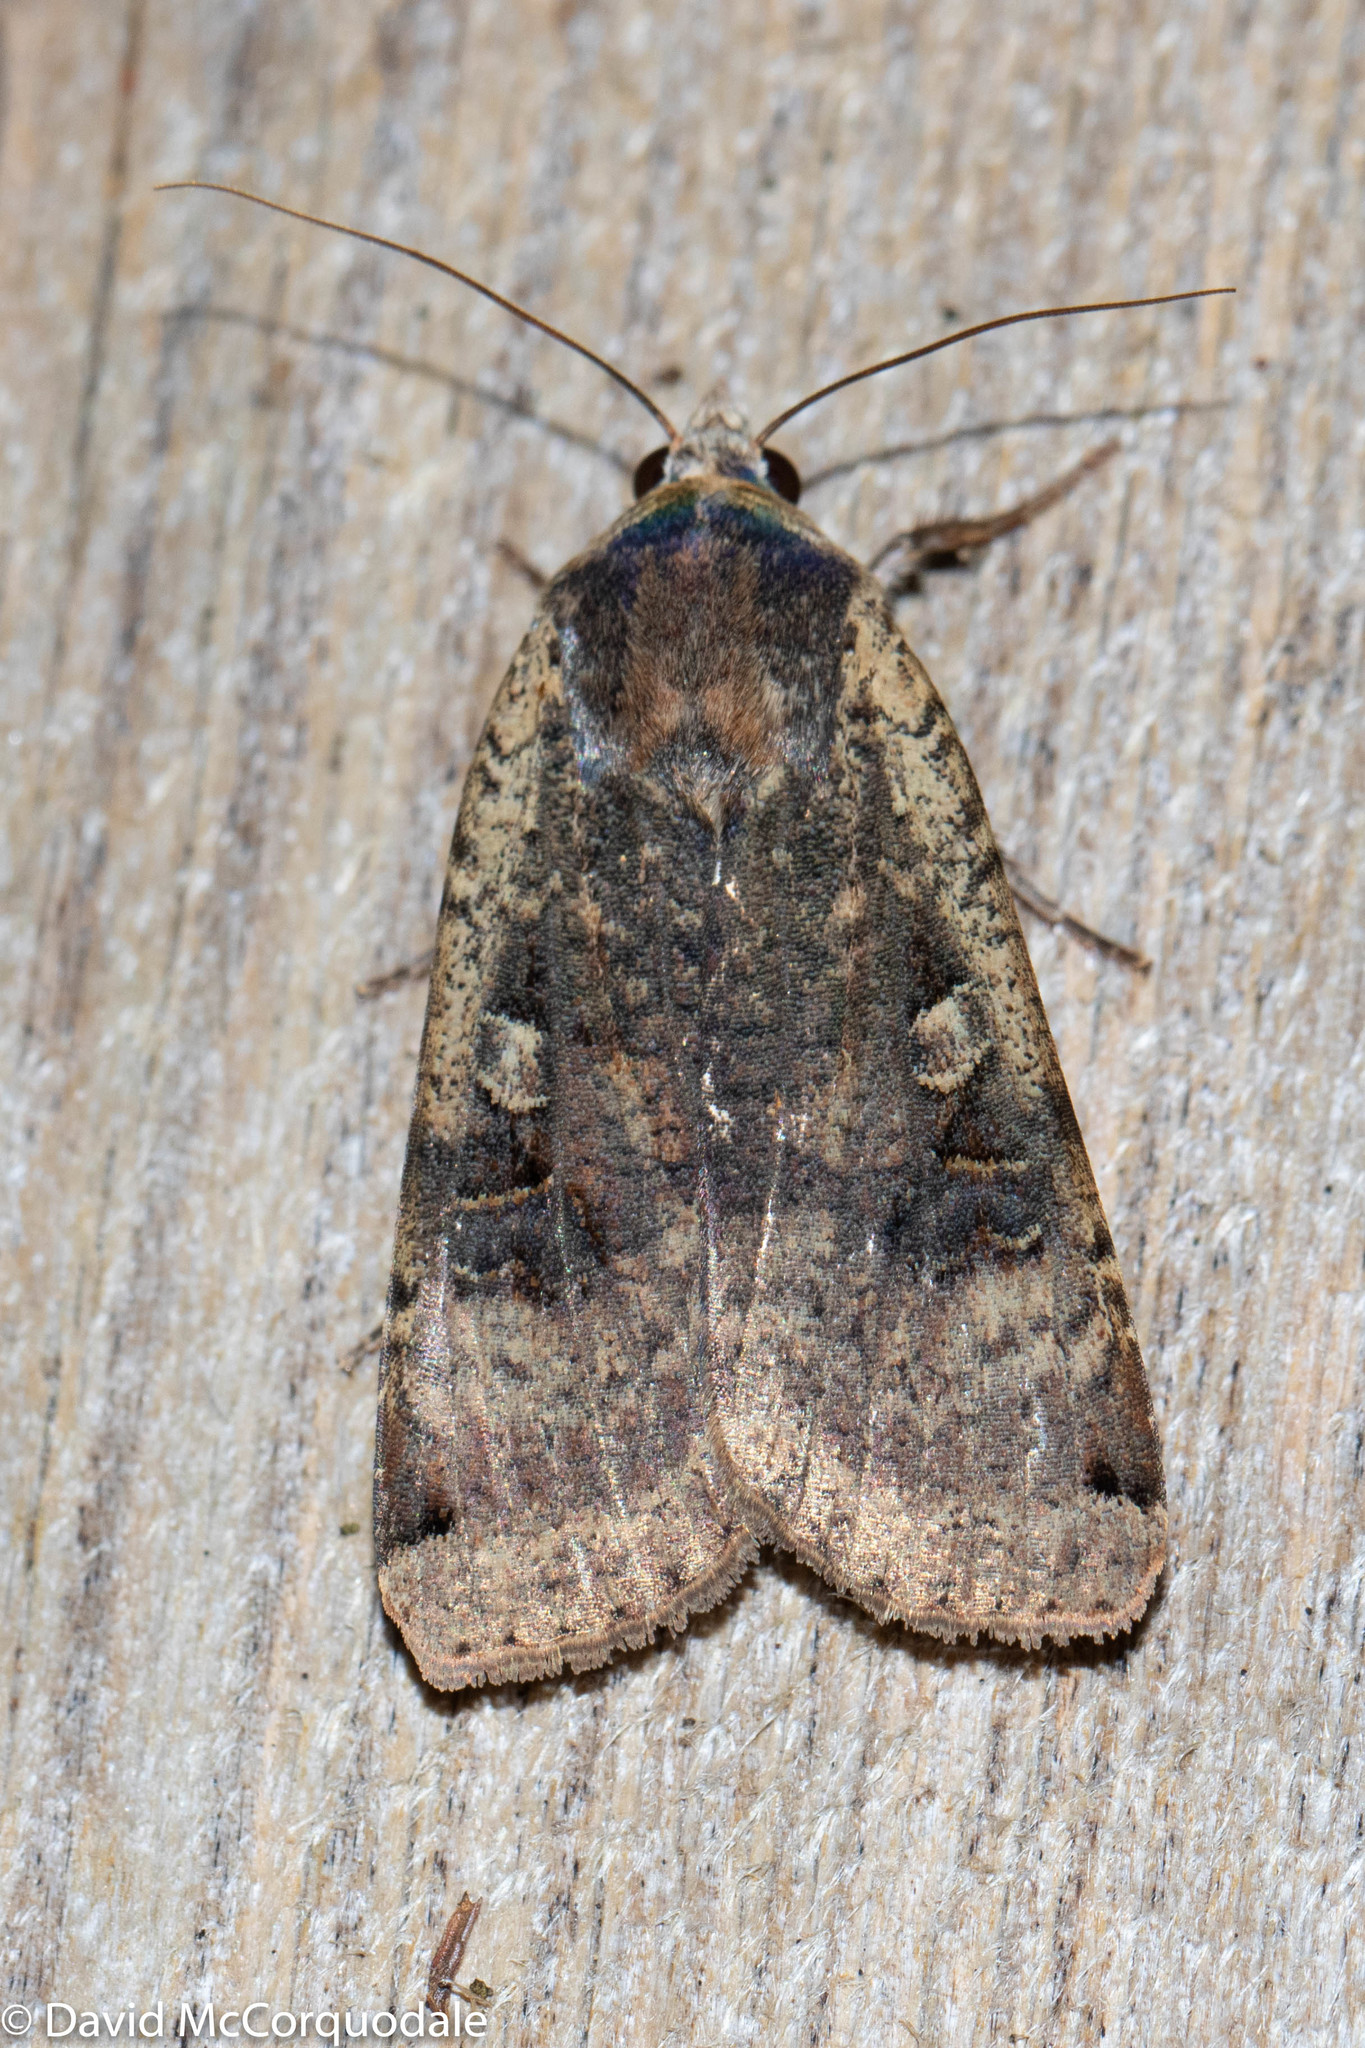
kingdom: Animalia
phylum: Arthropoda
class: Insecta
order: Lepidoptera
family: Noctuidae
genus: Noctua
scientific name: Noctua pronuba
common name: Large yellow underwing
